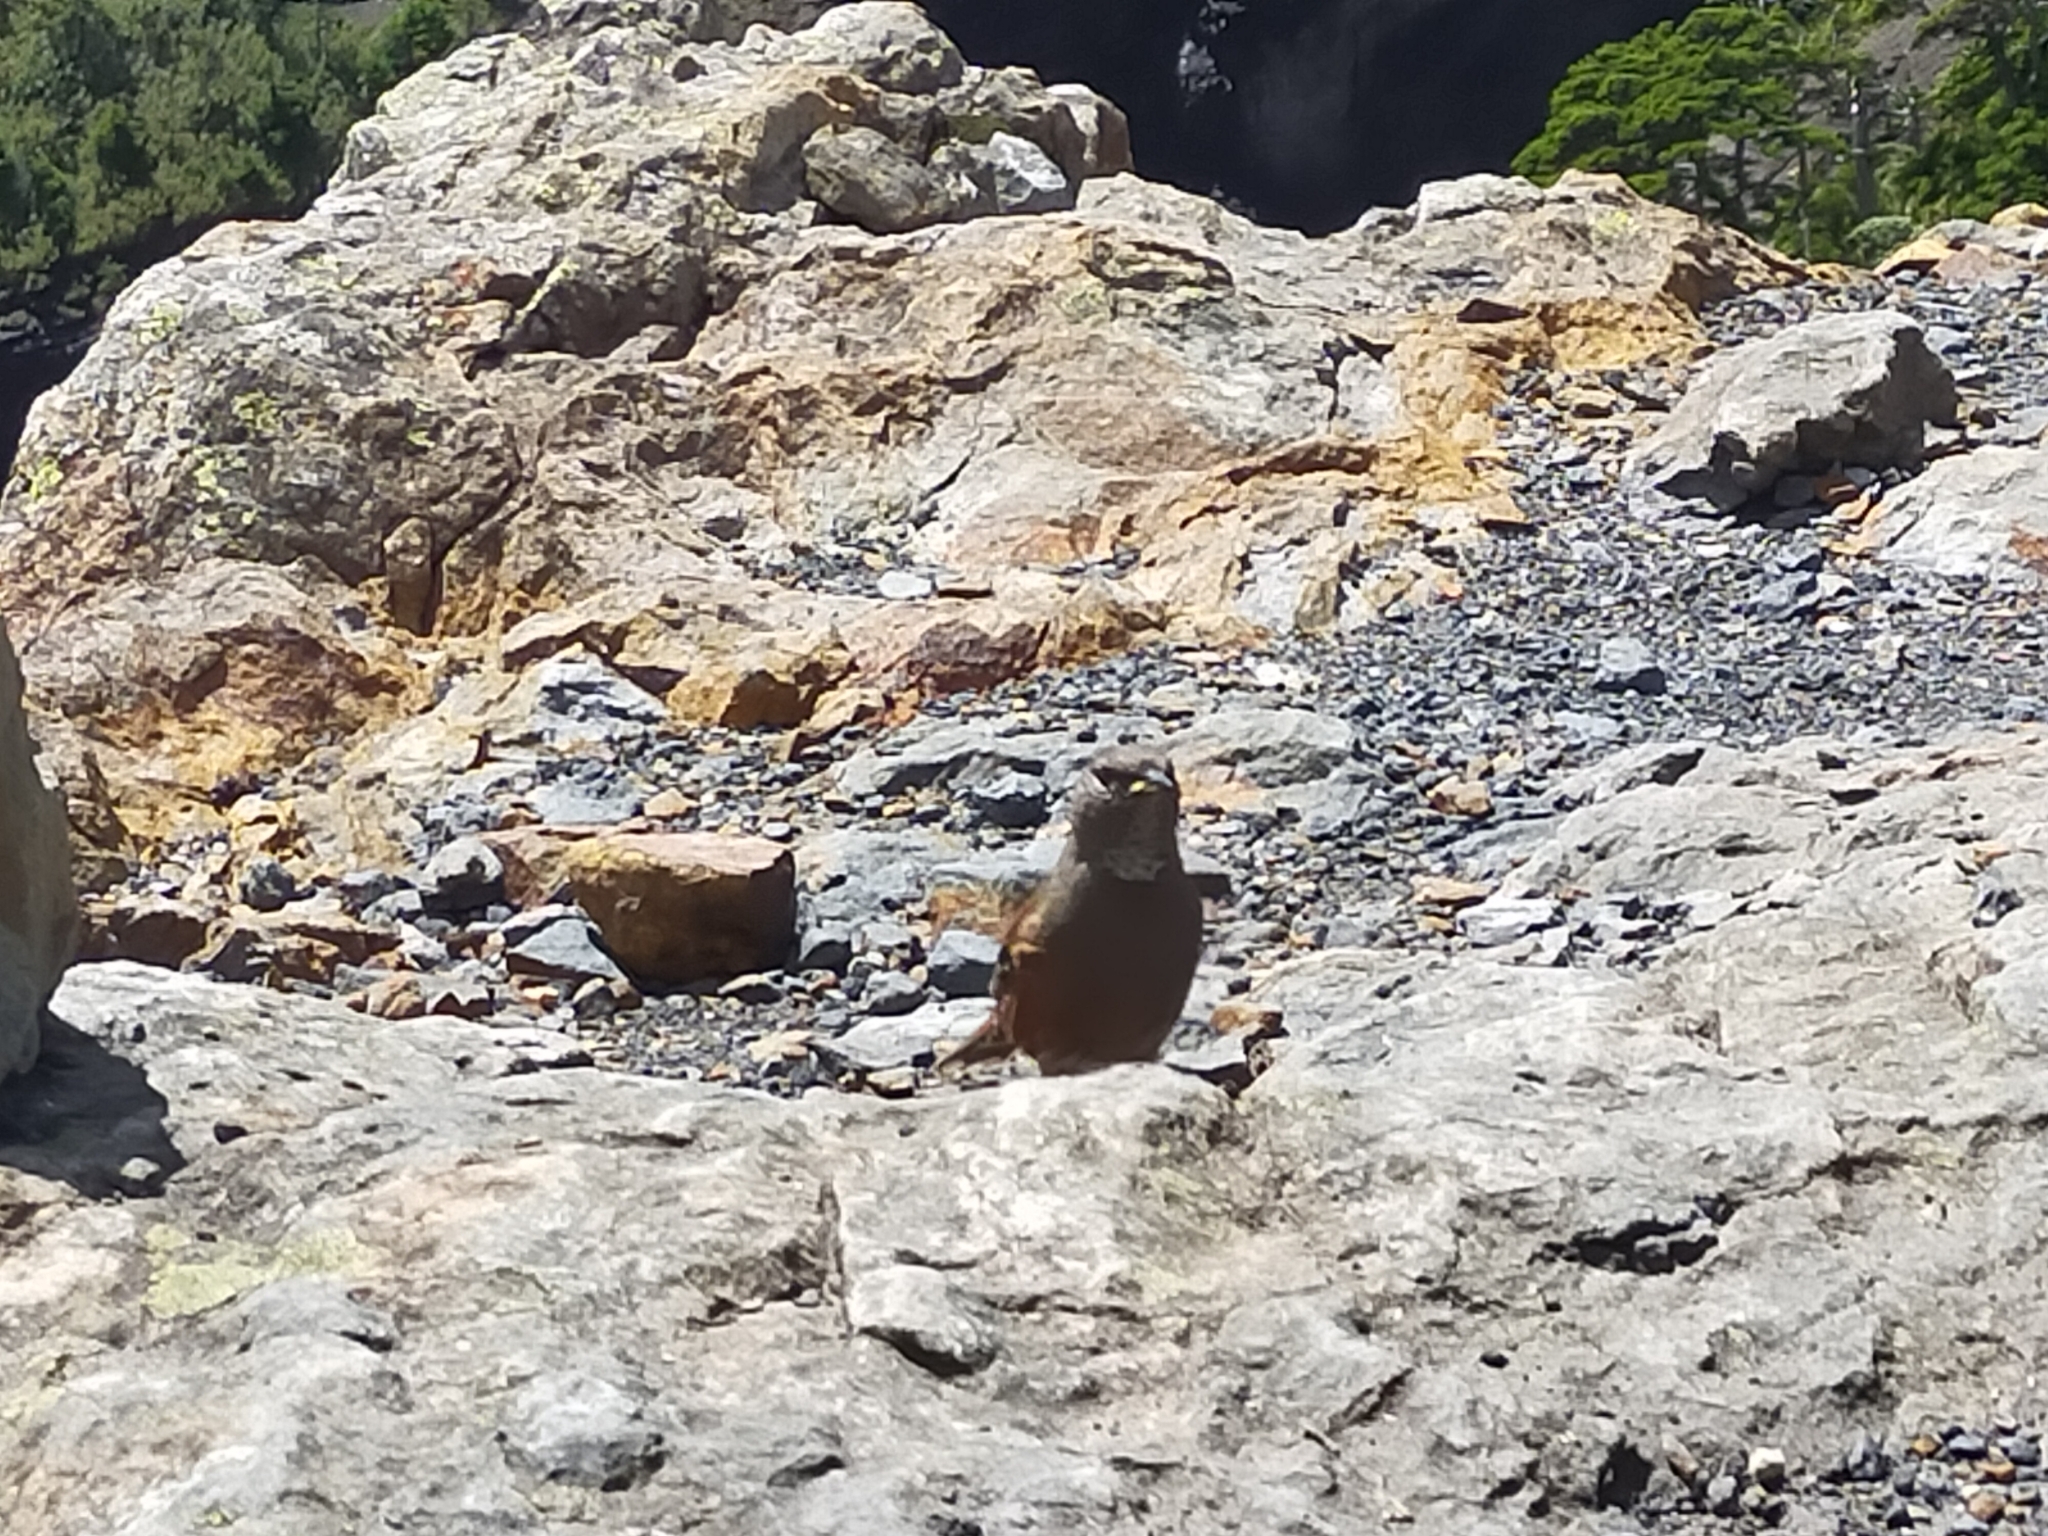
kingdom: Animalia
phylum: Chordata
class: Aves
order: Passeriformes
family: Prunellidae
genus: Prunella
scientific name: Prunella collaris
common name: Alpine accentor
